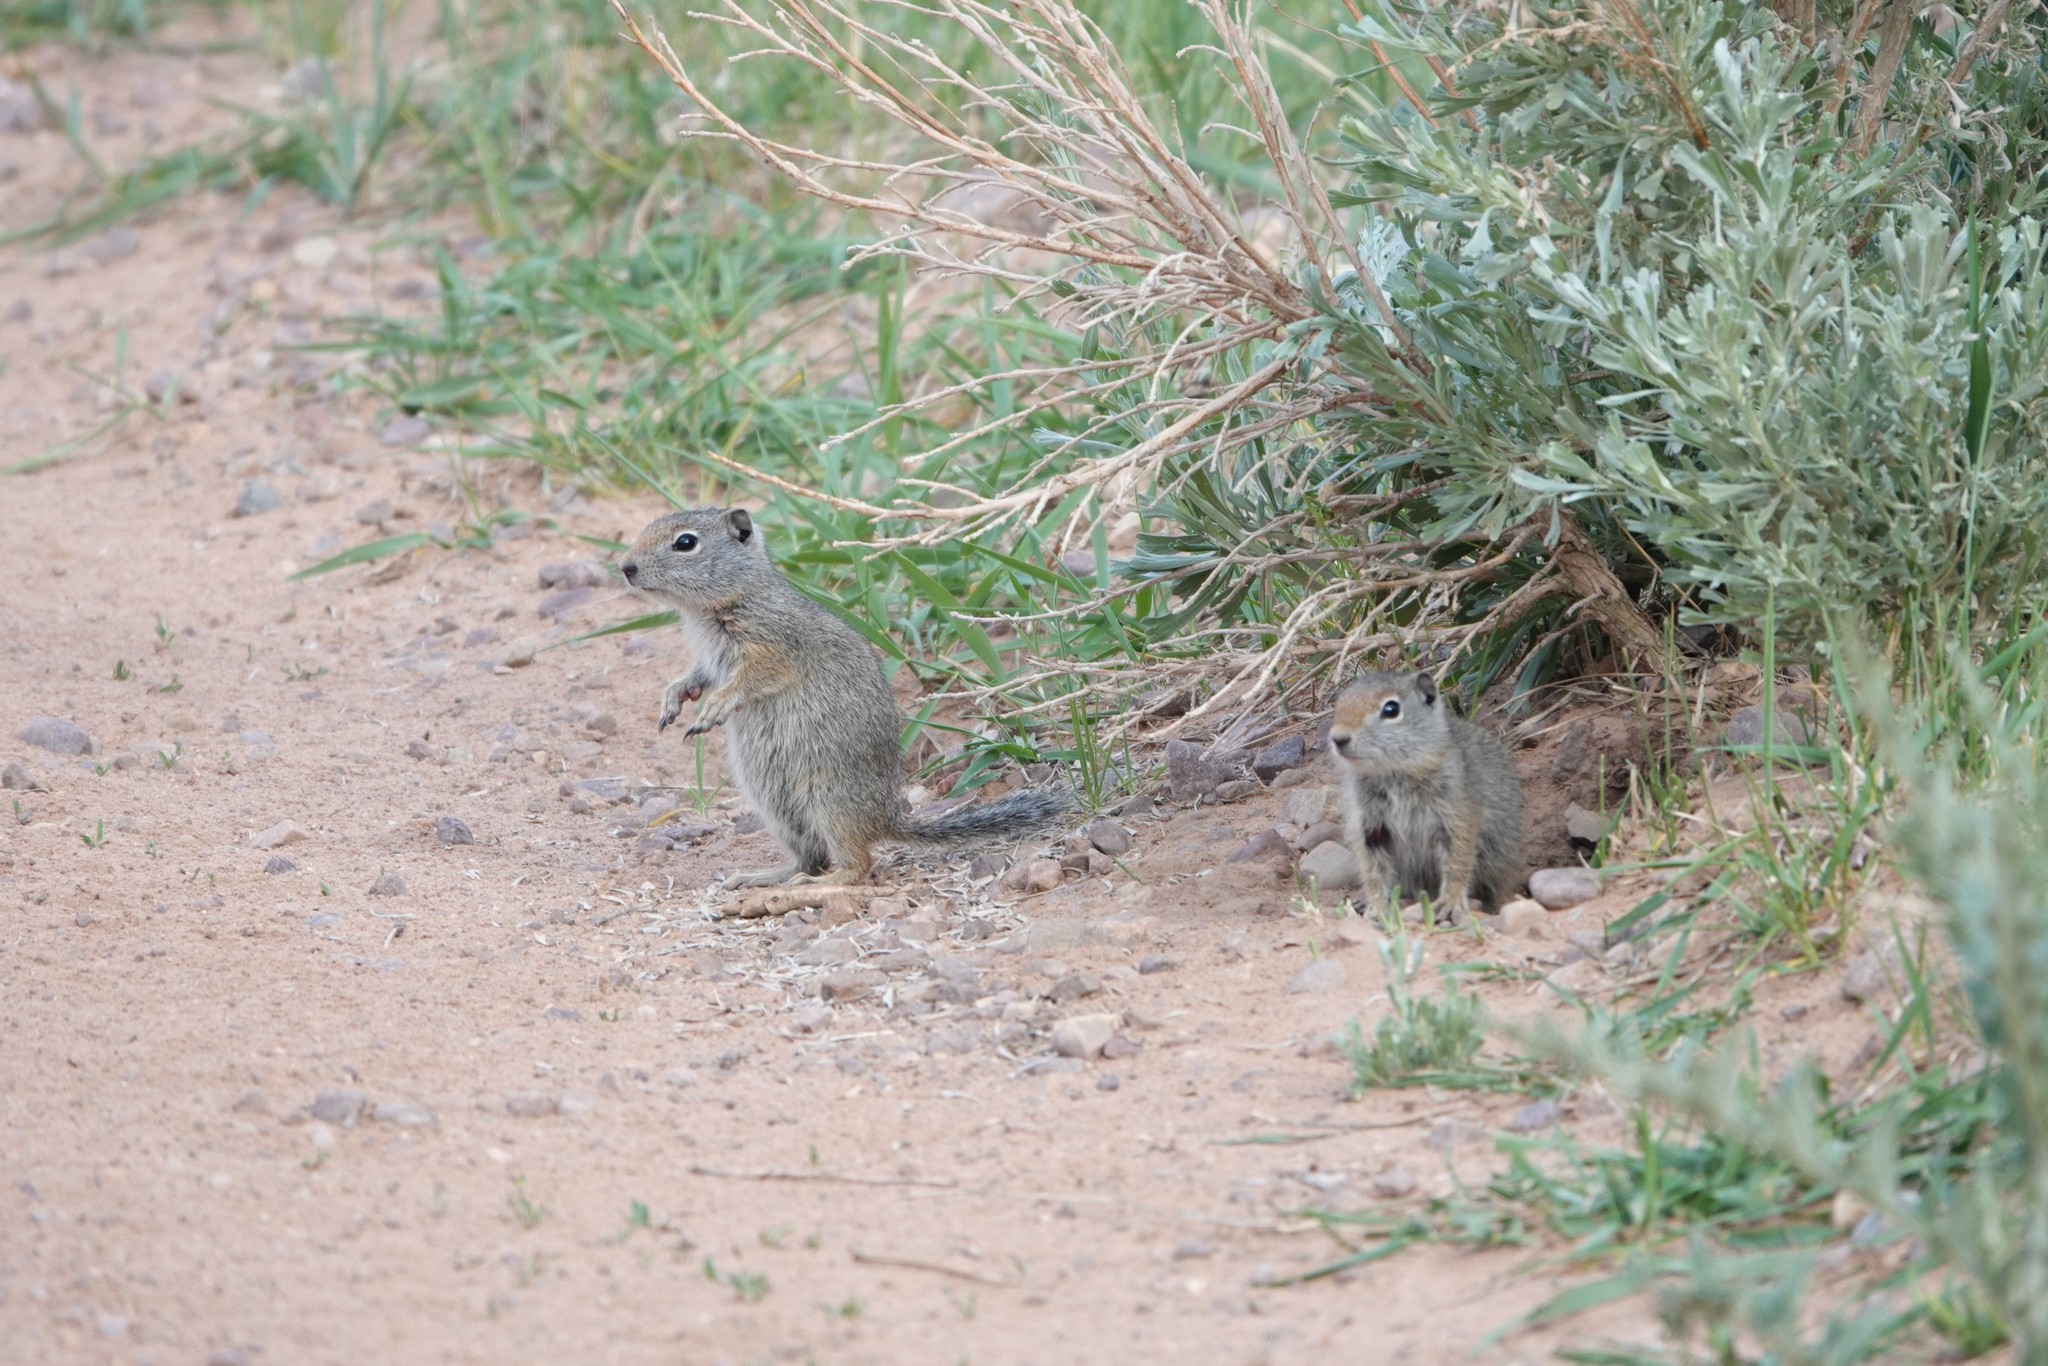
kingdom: Animalia
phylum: Chordata
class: Mammalia
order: Rodentia
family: Sciuridae
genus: Urocitellus
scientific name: Urocitellus armatus
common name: Uinta ground squirrel
